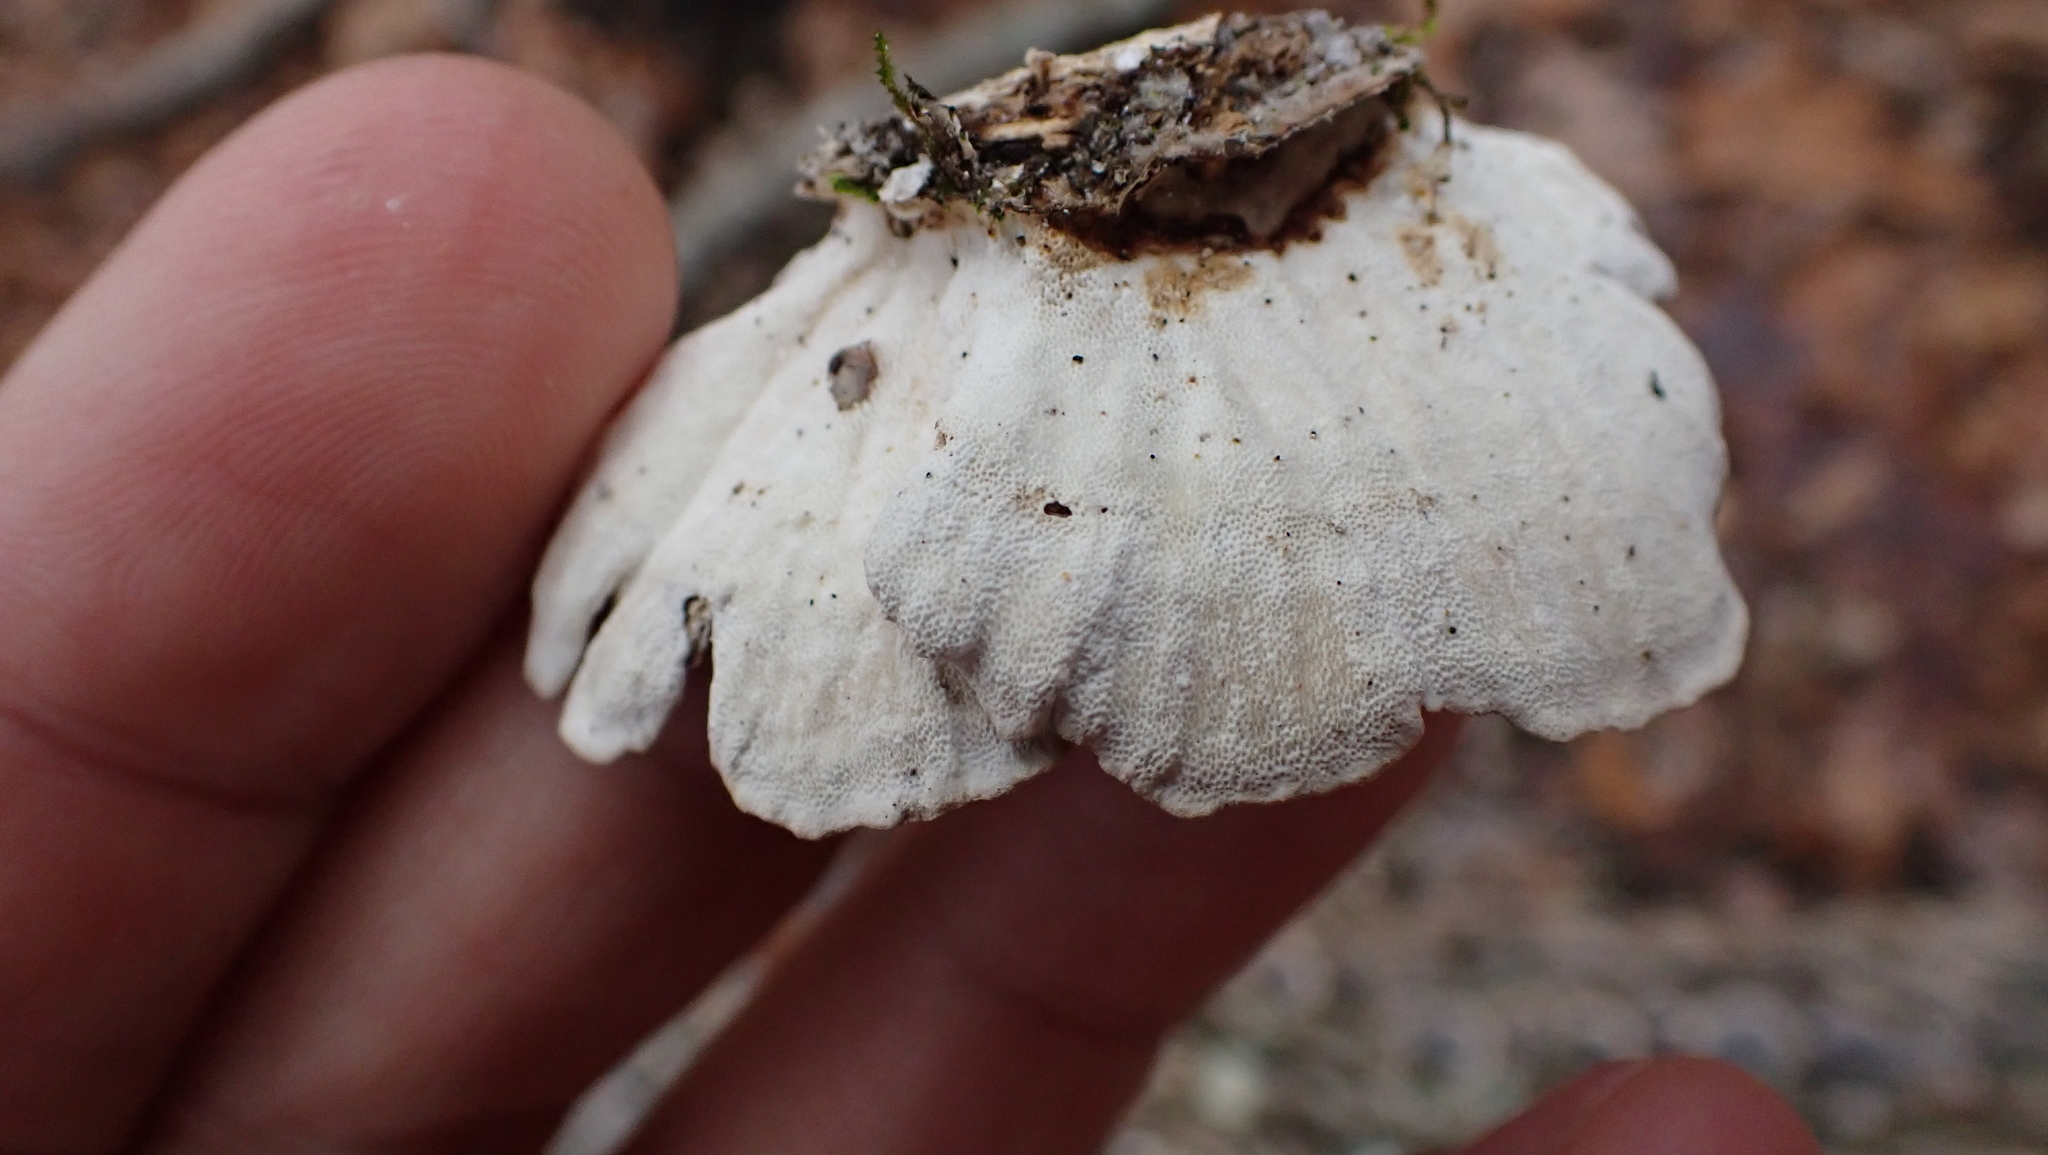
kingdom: Fungi
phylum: Basidiomycota
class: Agaricomycetes
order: Polyporales
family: Polyporaceae
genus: Trametes
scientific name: Trametes versicolor
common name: Turkeytail
